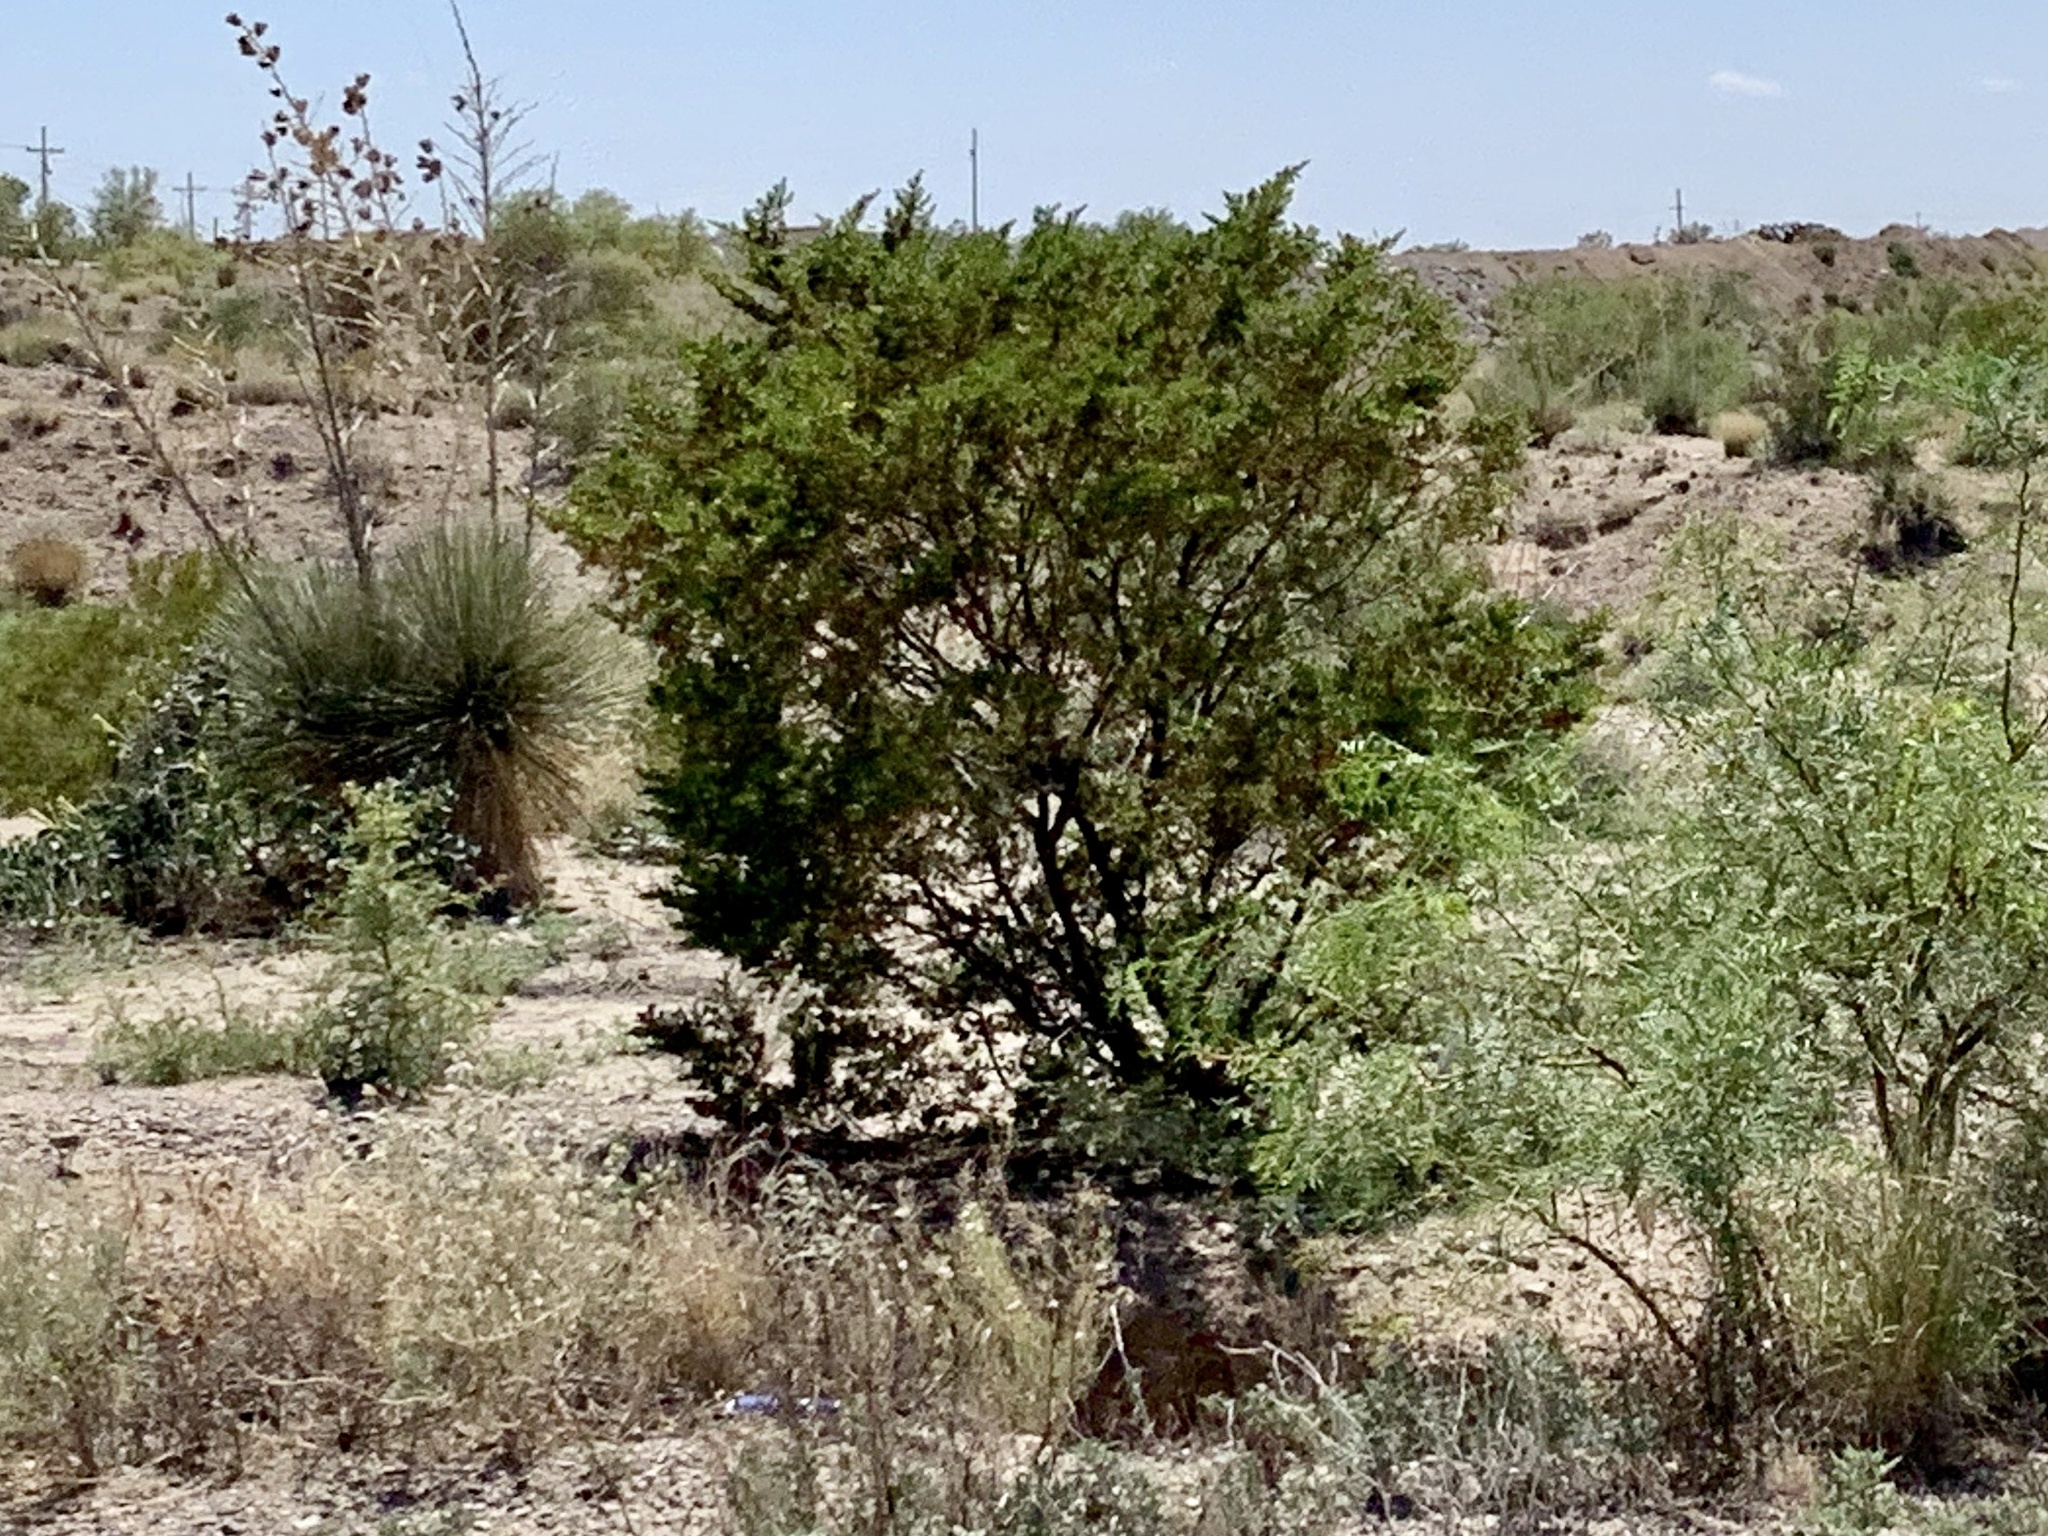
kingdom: Plantae
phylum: Tracheophyta
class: Magnoliopsida
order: Zygophyllales
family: Zygophyllaceae
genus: Larrea
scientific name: Larrea tridentata
